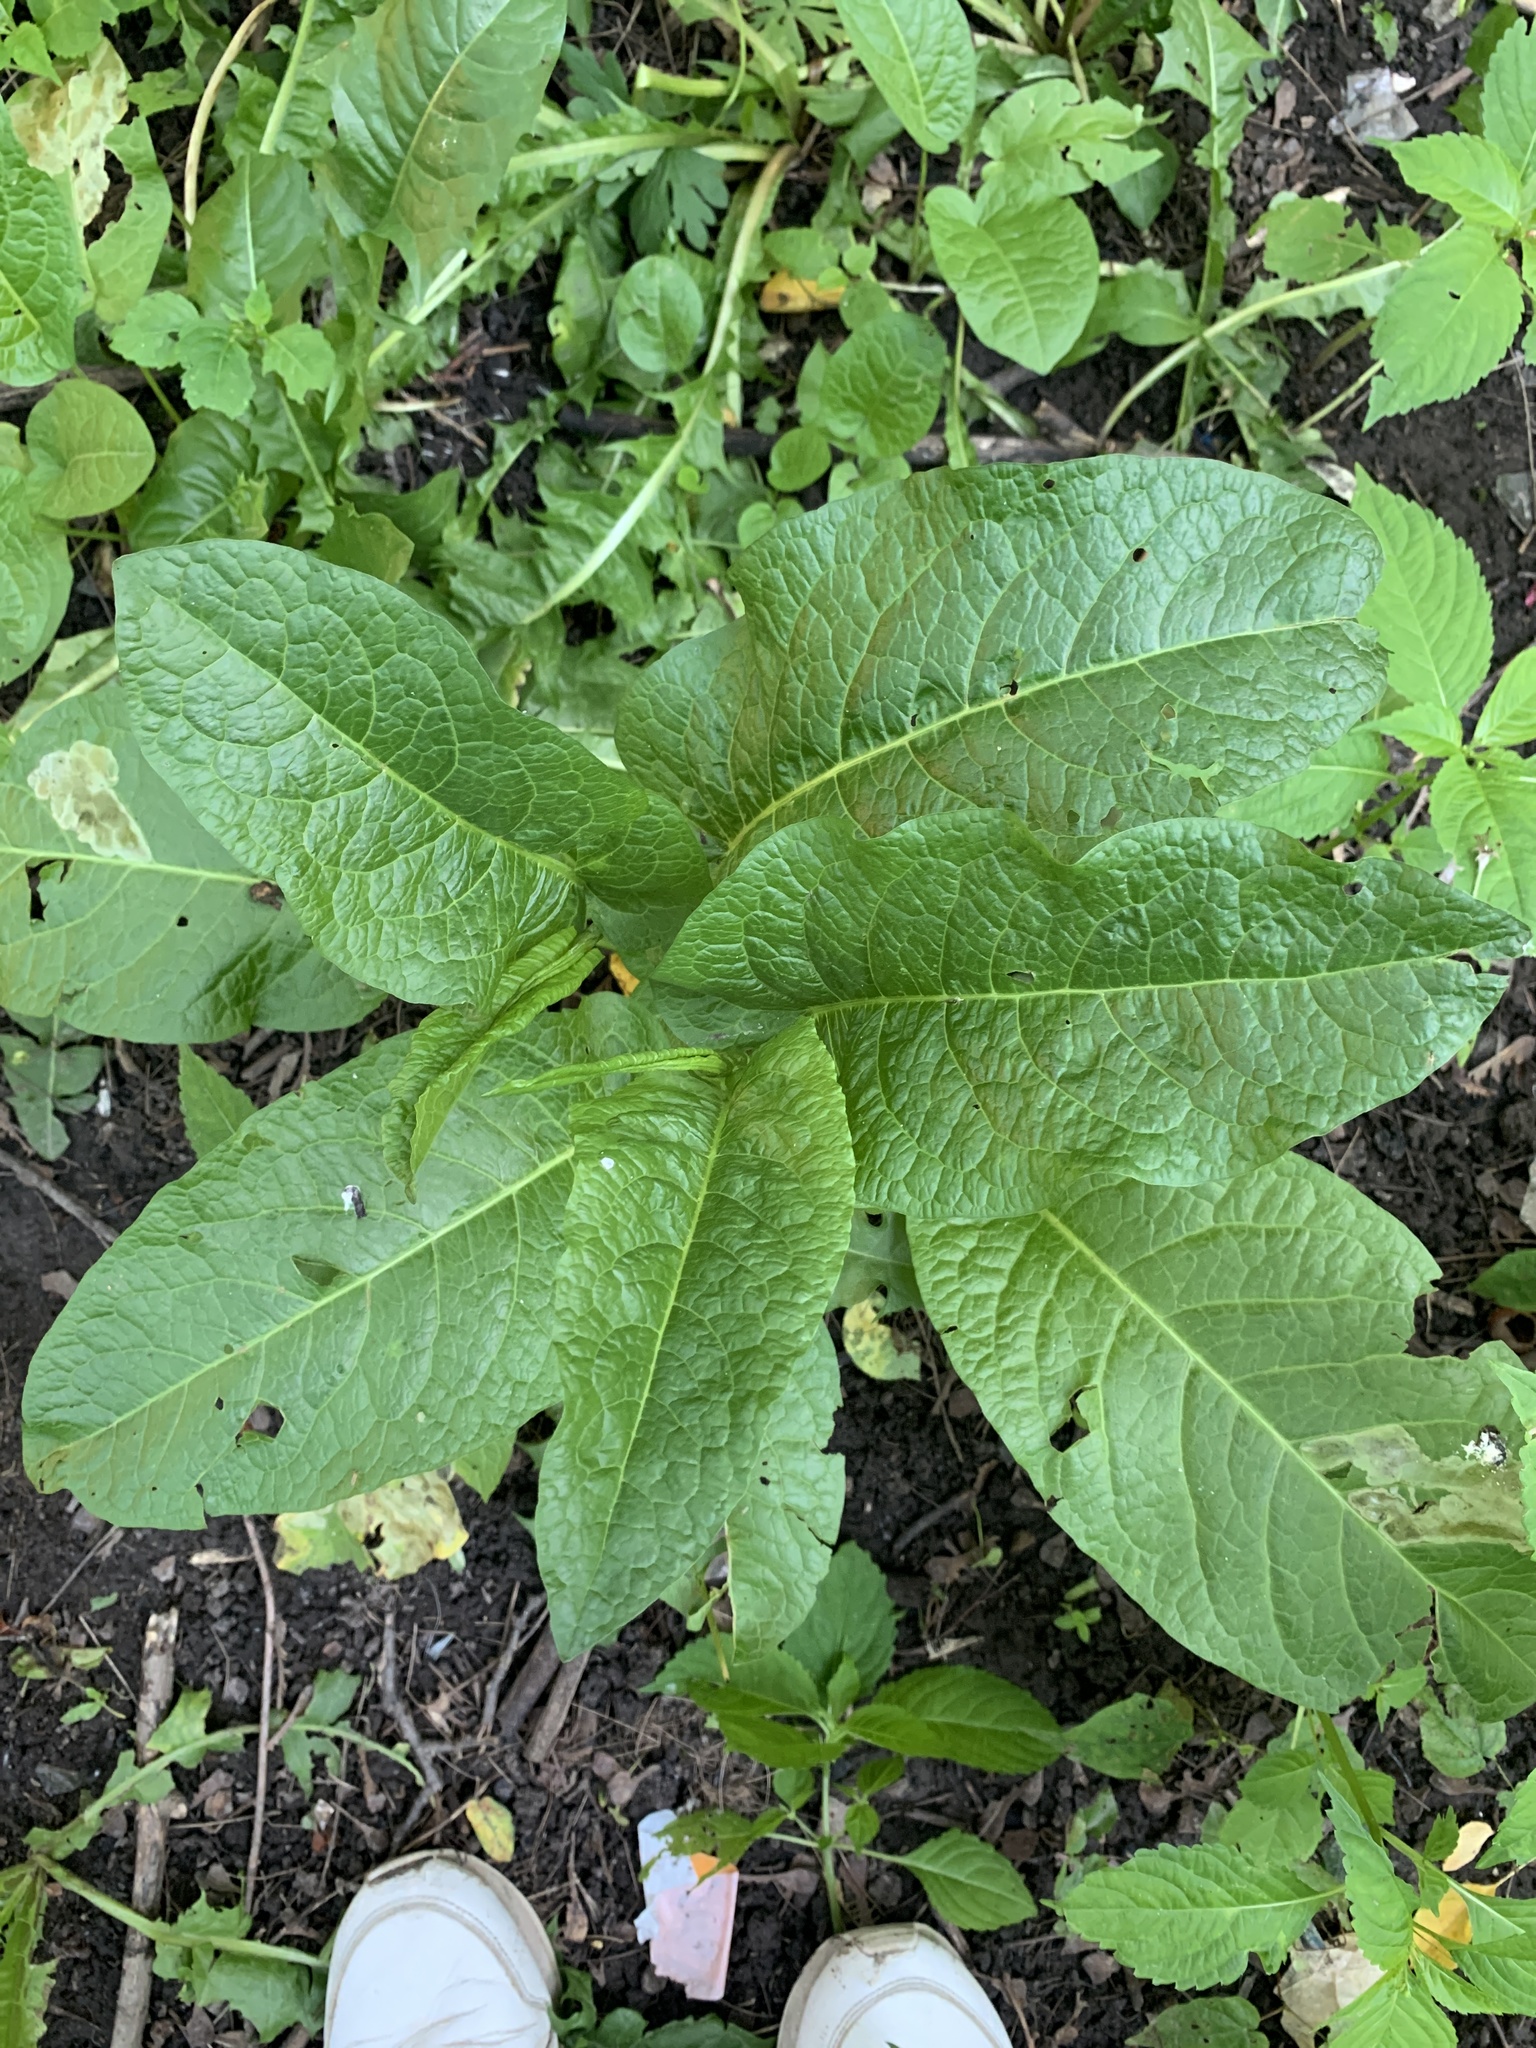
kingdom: Plantae
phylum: Tracheophyta
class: Magnoliopsida
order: Caryophyllales
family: Polygonaceae
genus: Rumex
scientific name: Rumex obtusifolius
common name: Bitter dock
